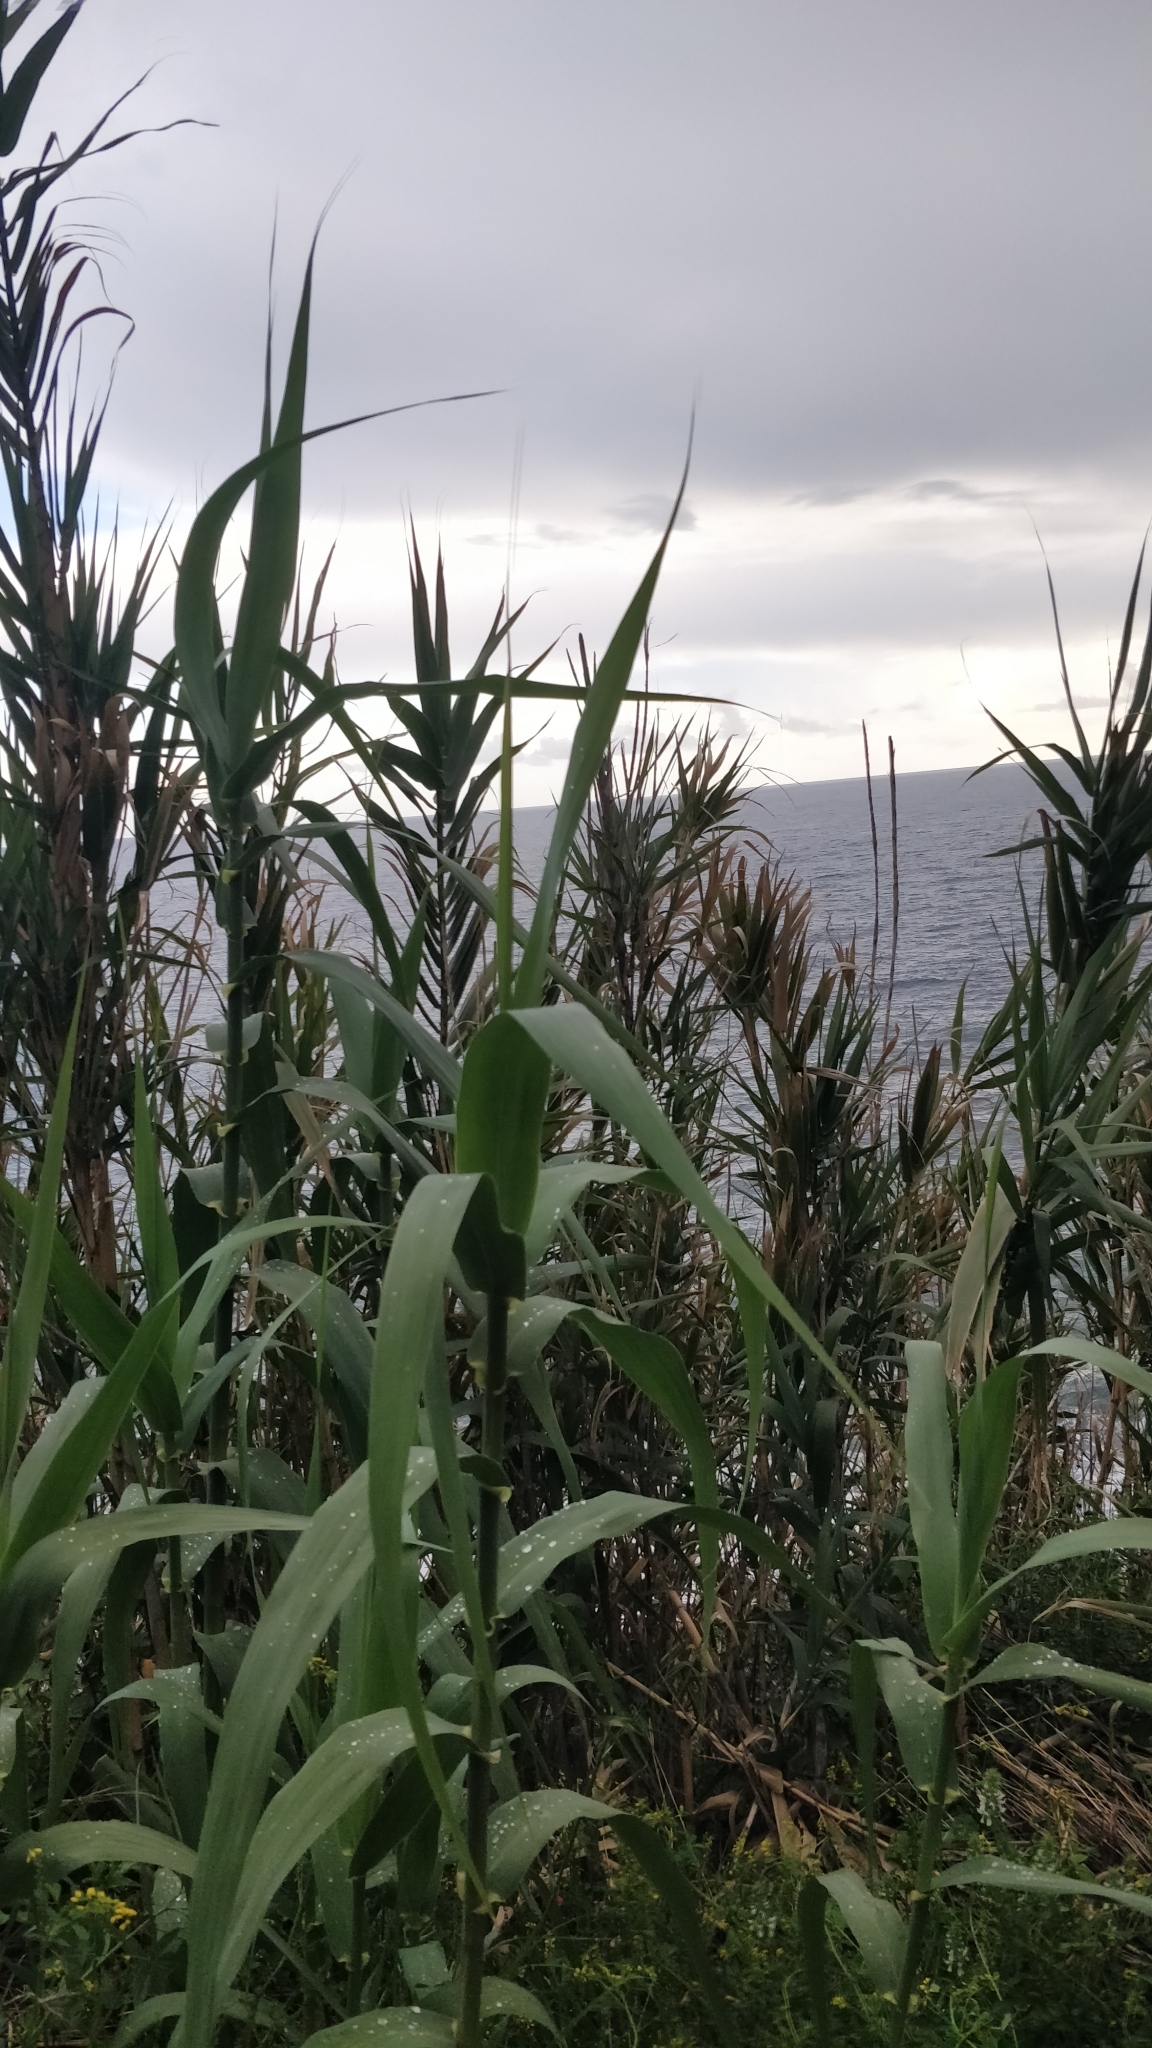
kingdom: Plantae
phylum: Tracheophyta
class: Liliopsida
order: Poales
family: Poaceae
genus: Arundo
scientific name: Arundo donax
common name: Giant reed
